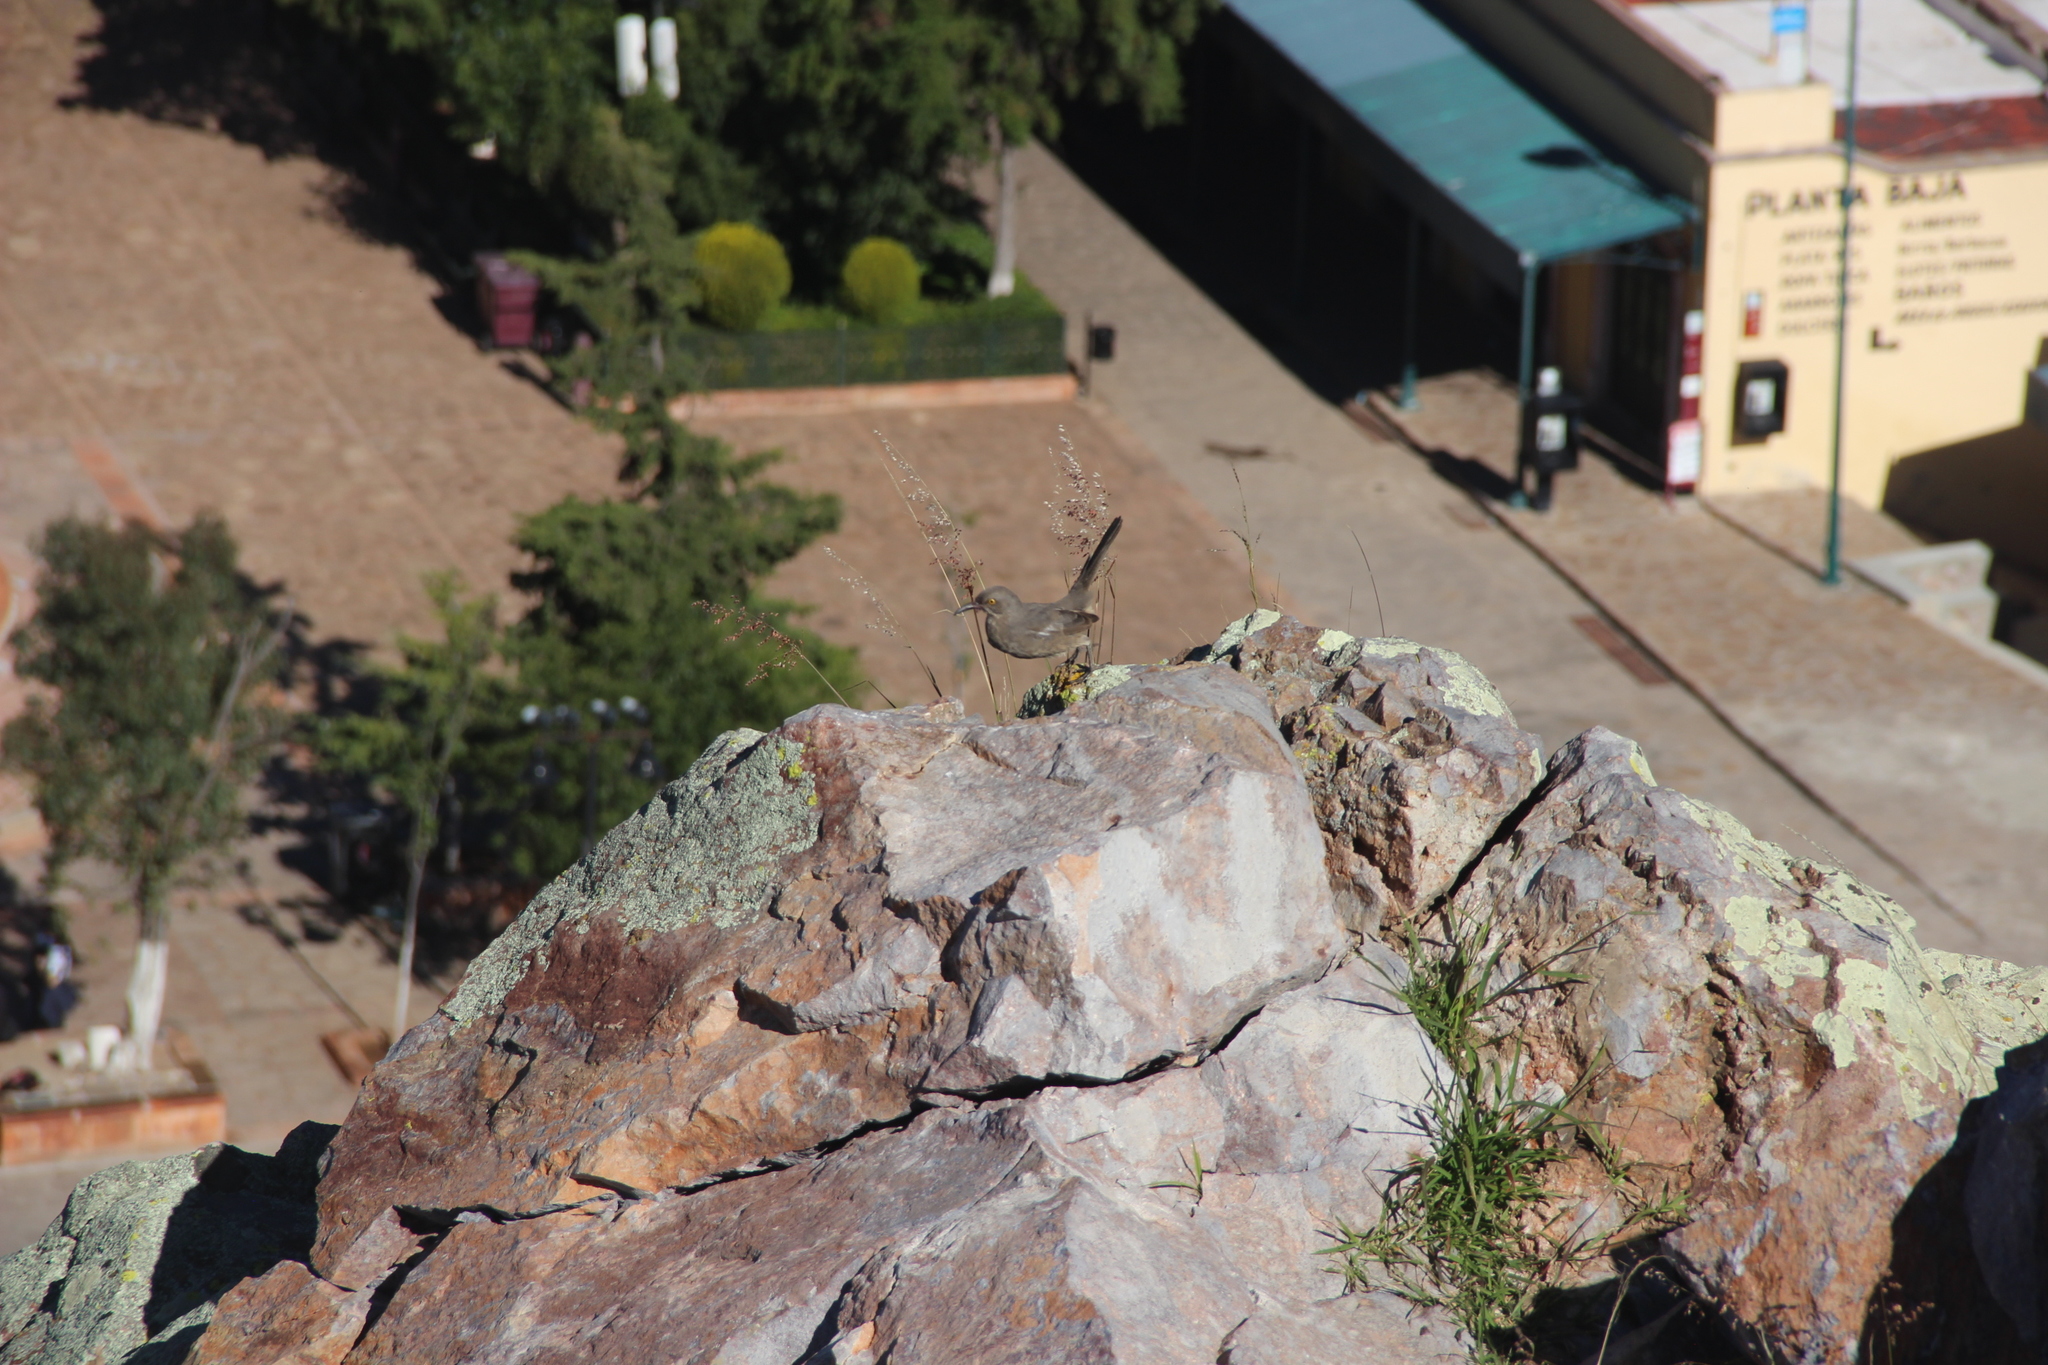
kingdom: Animalia
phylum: Chordata
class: Aves
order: Passeriformes
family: Mimidae
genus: Toxostoma
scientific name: Toxostoma curvirostre
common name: Curve-billed thrasher
